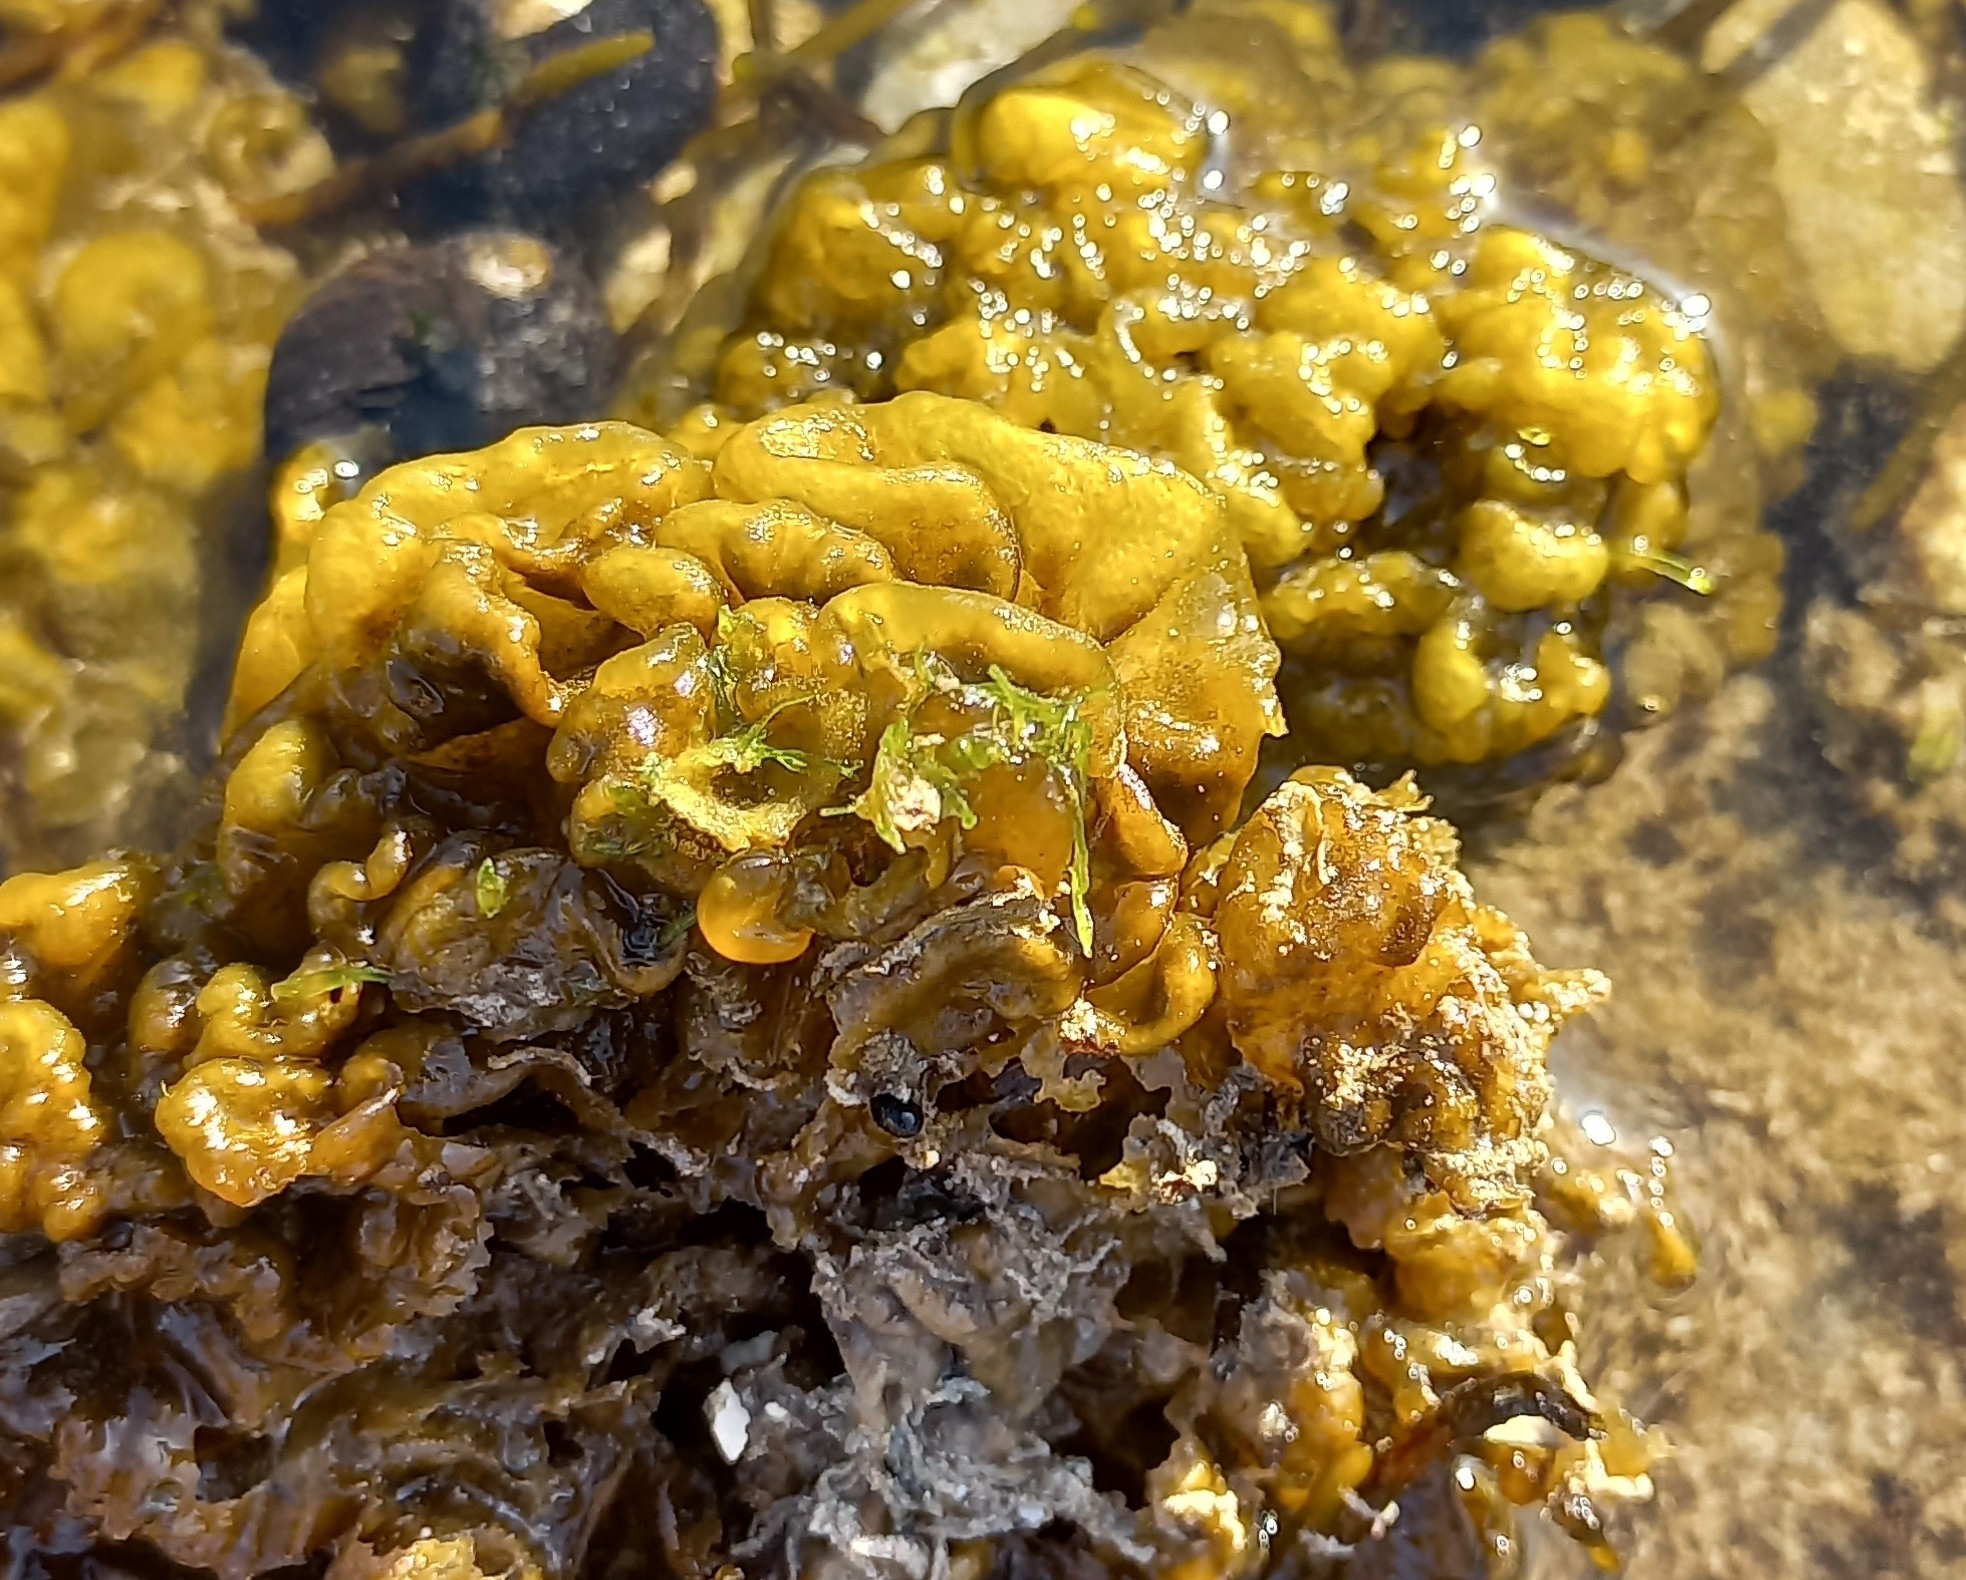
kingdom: Chromista
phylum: Ochrophyta
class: Phaeophyceae
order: Ectocarpales
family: Chordariaceae
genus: Leathesia
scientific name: Leathesia marina
